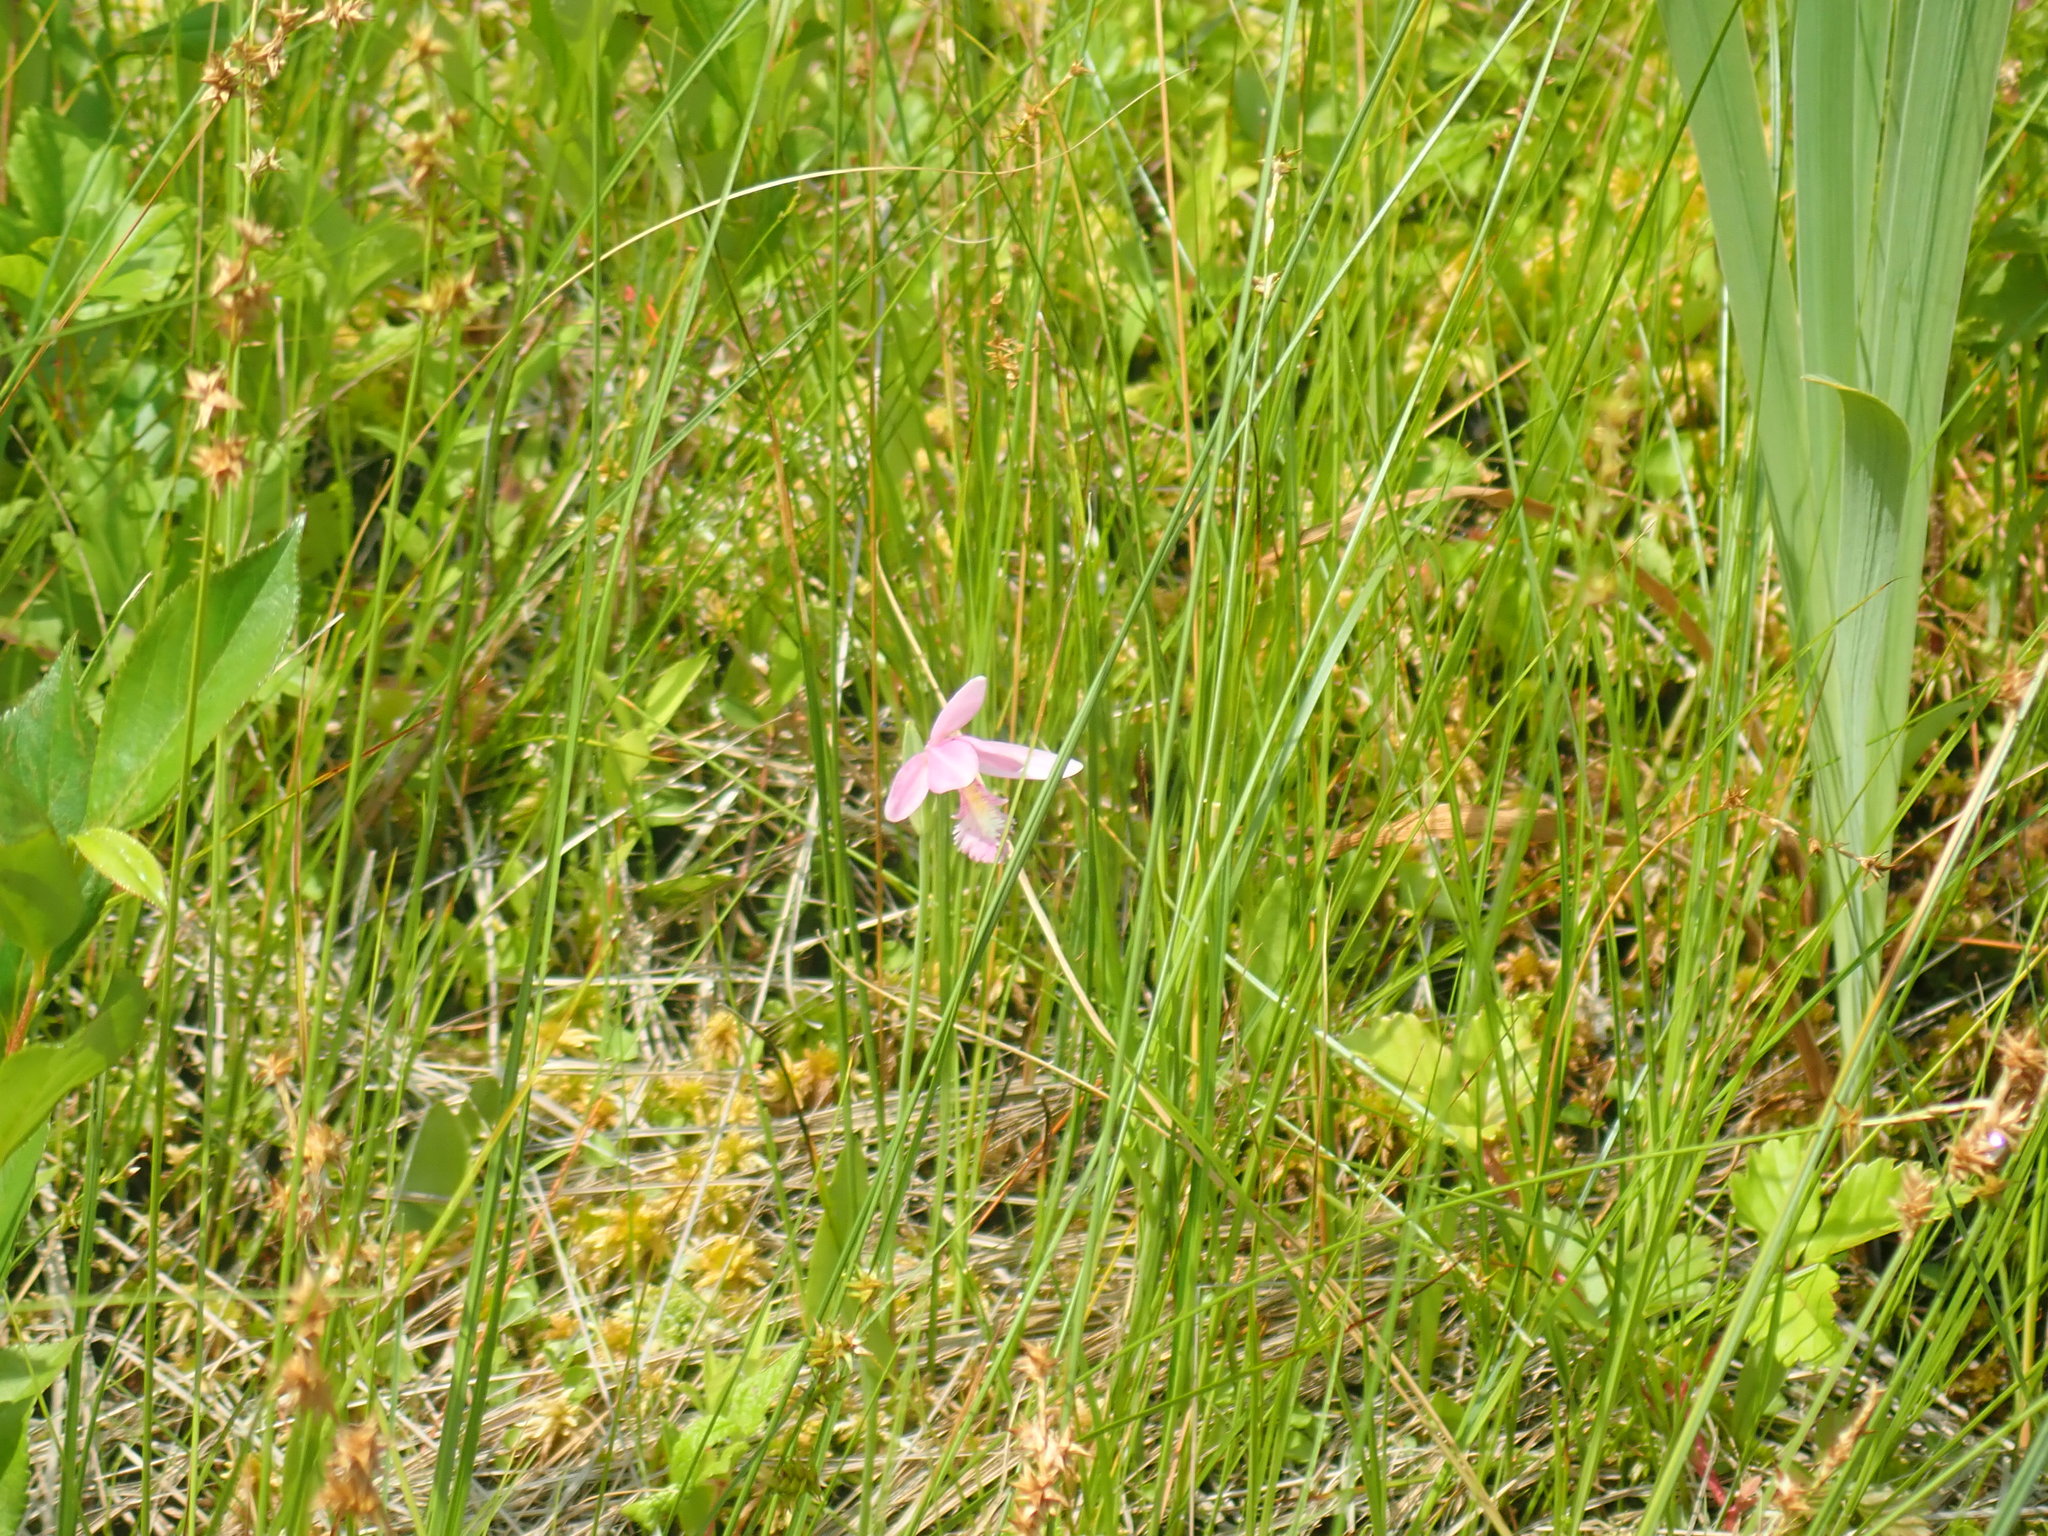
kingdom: Plantae
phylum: Tracheophyta
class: Liliopsida
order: Asparagales
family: Orchidaceae
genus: Pogonia
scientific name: Pogonia ophioglossoides
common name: Rose pogonia
